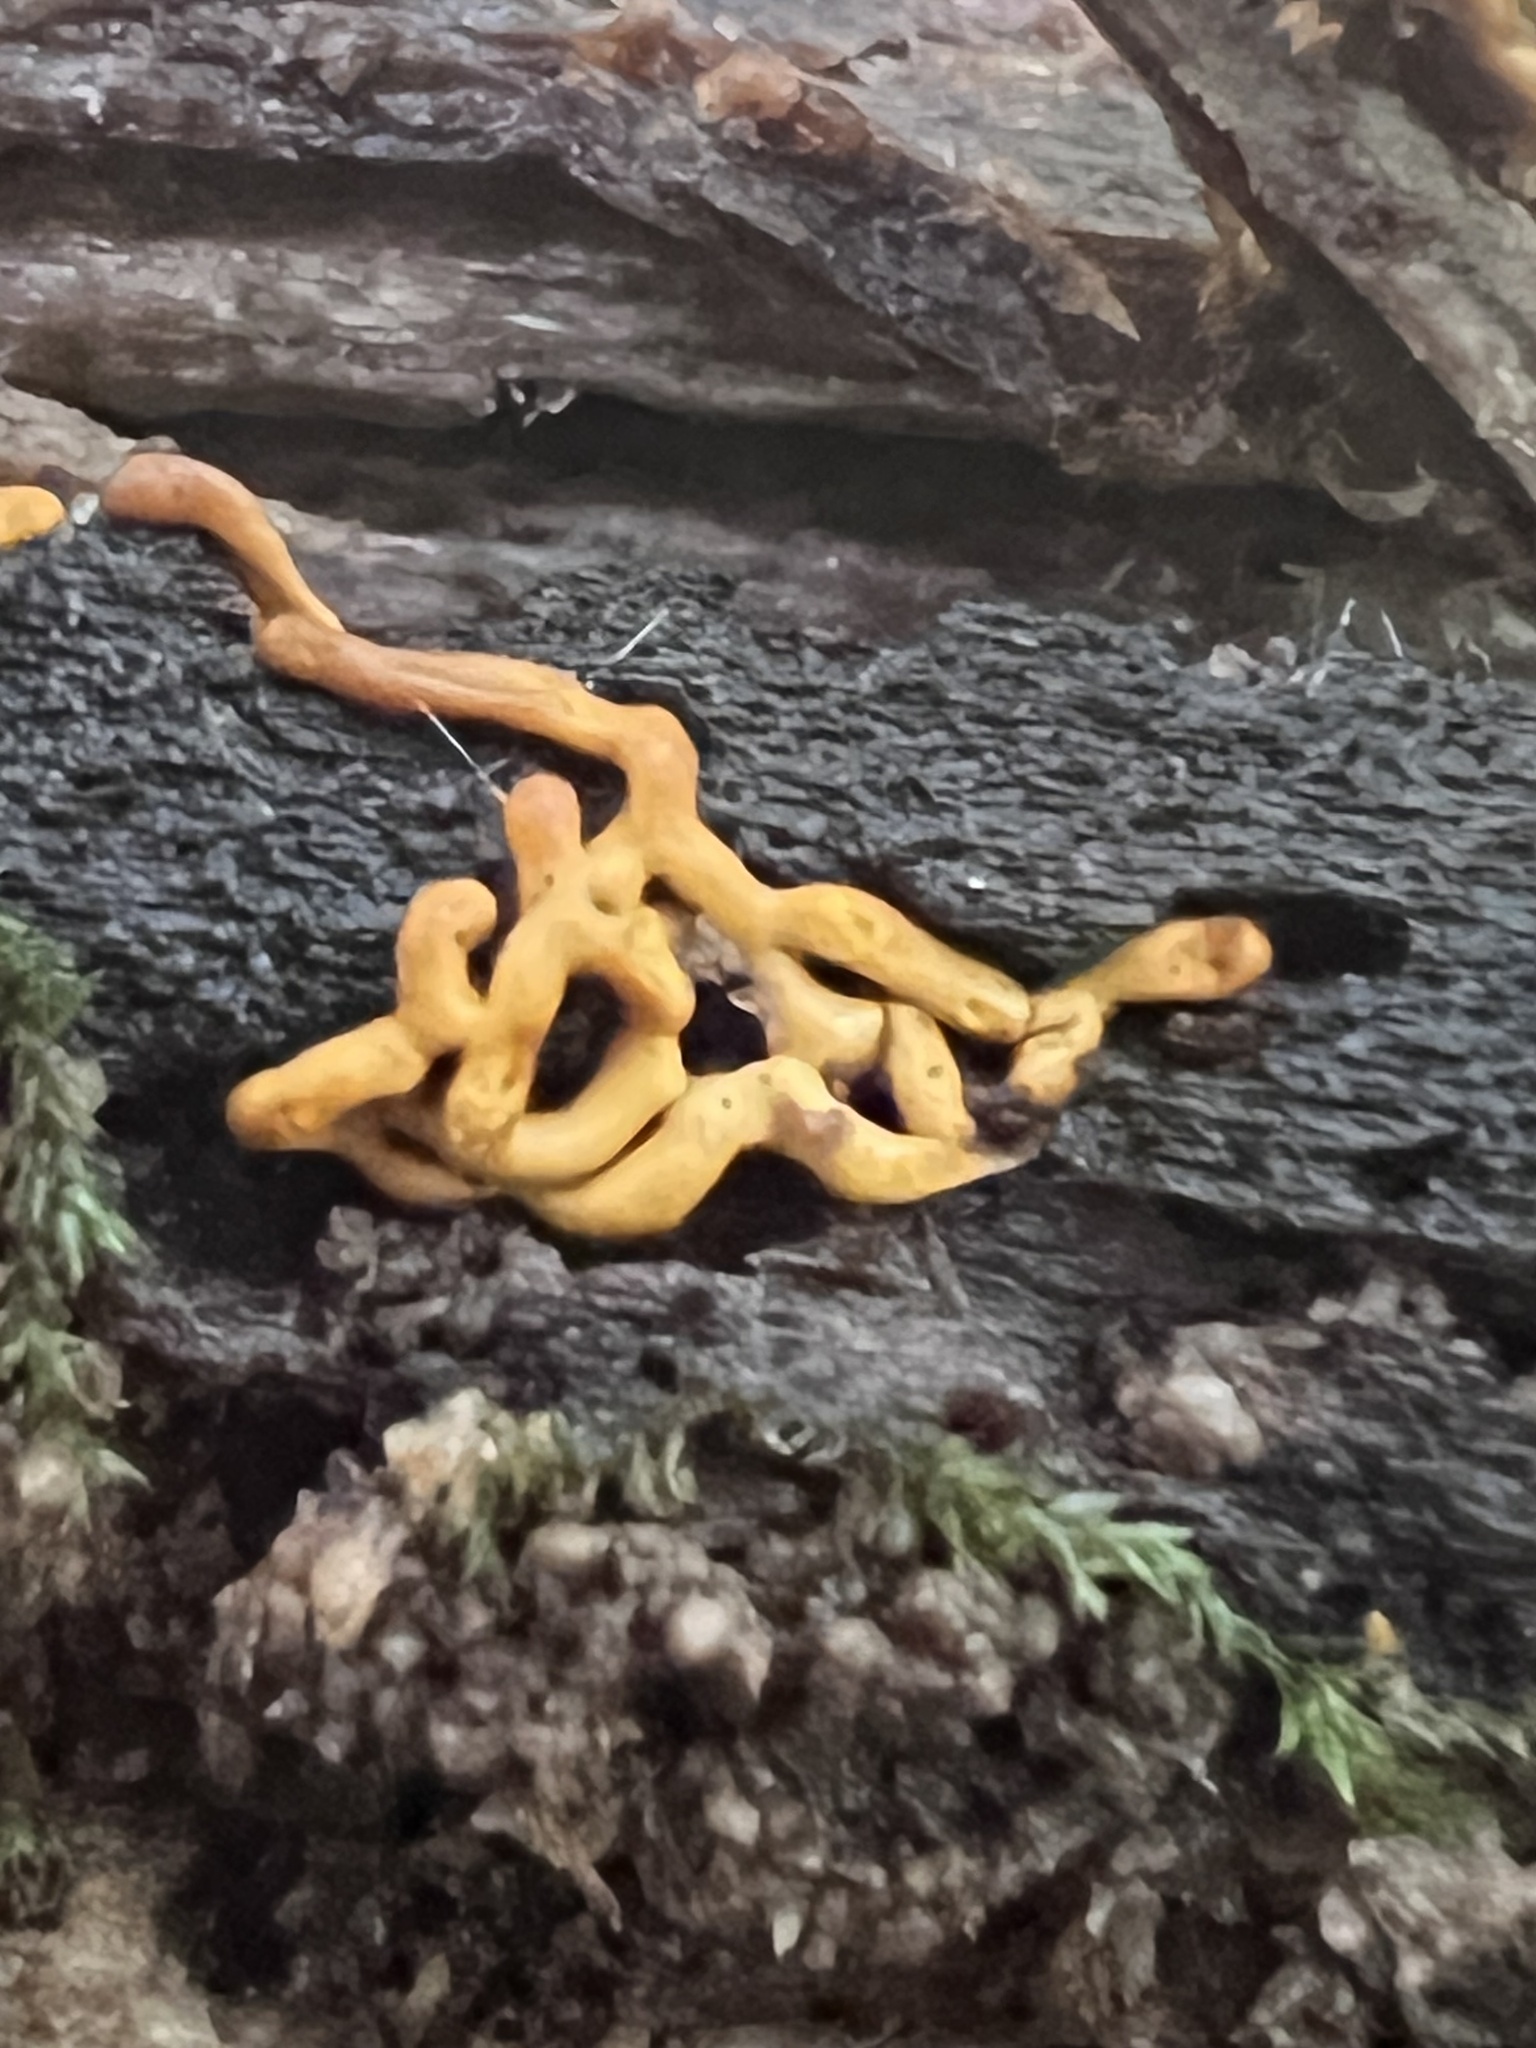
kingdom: Protozoa
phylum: Mycetozoa
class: Myxomycetes
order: Trichiales
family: Arcyriaceae
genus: Hemitrichia
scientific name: Hemitrichia serpula
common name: Pretzel slime mold
